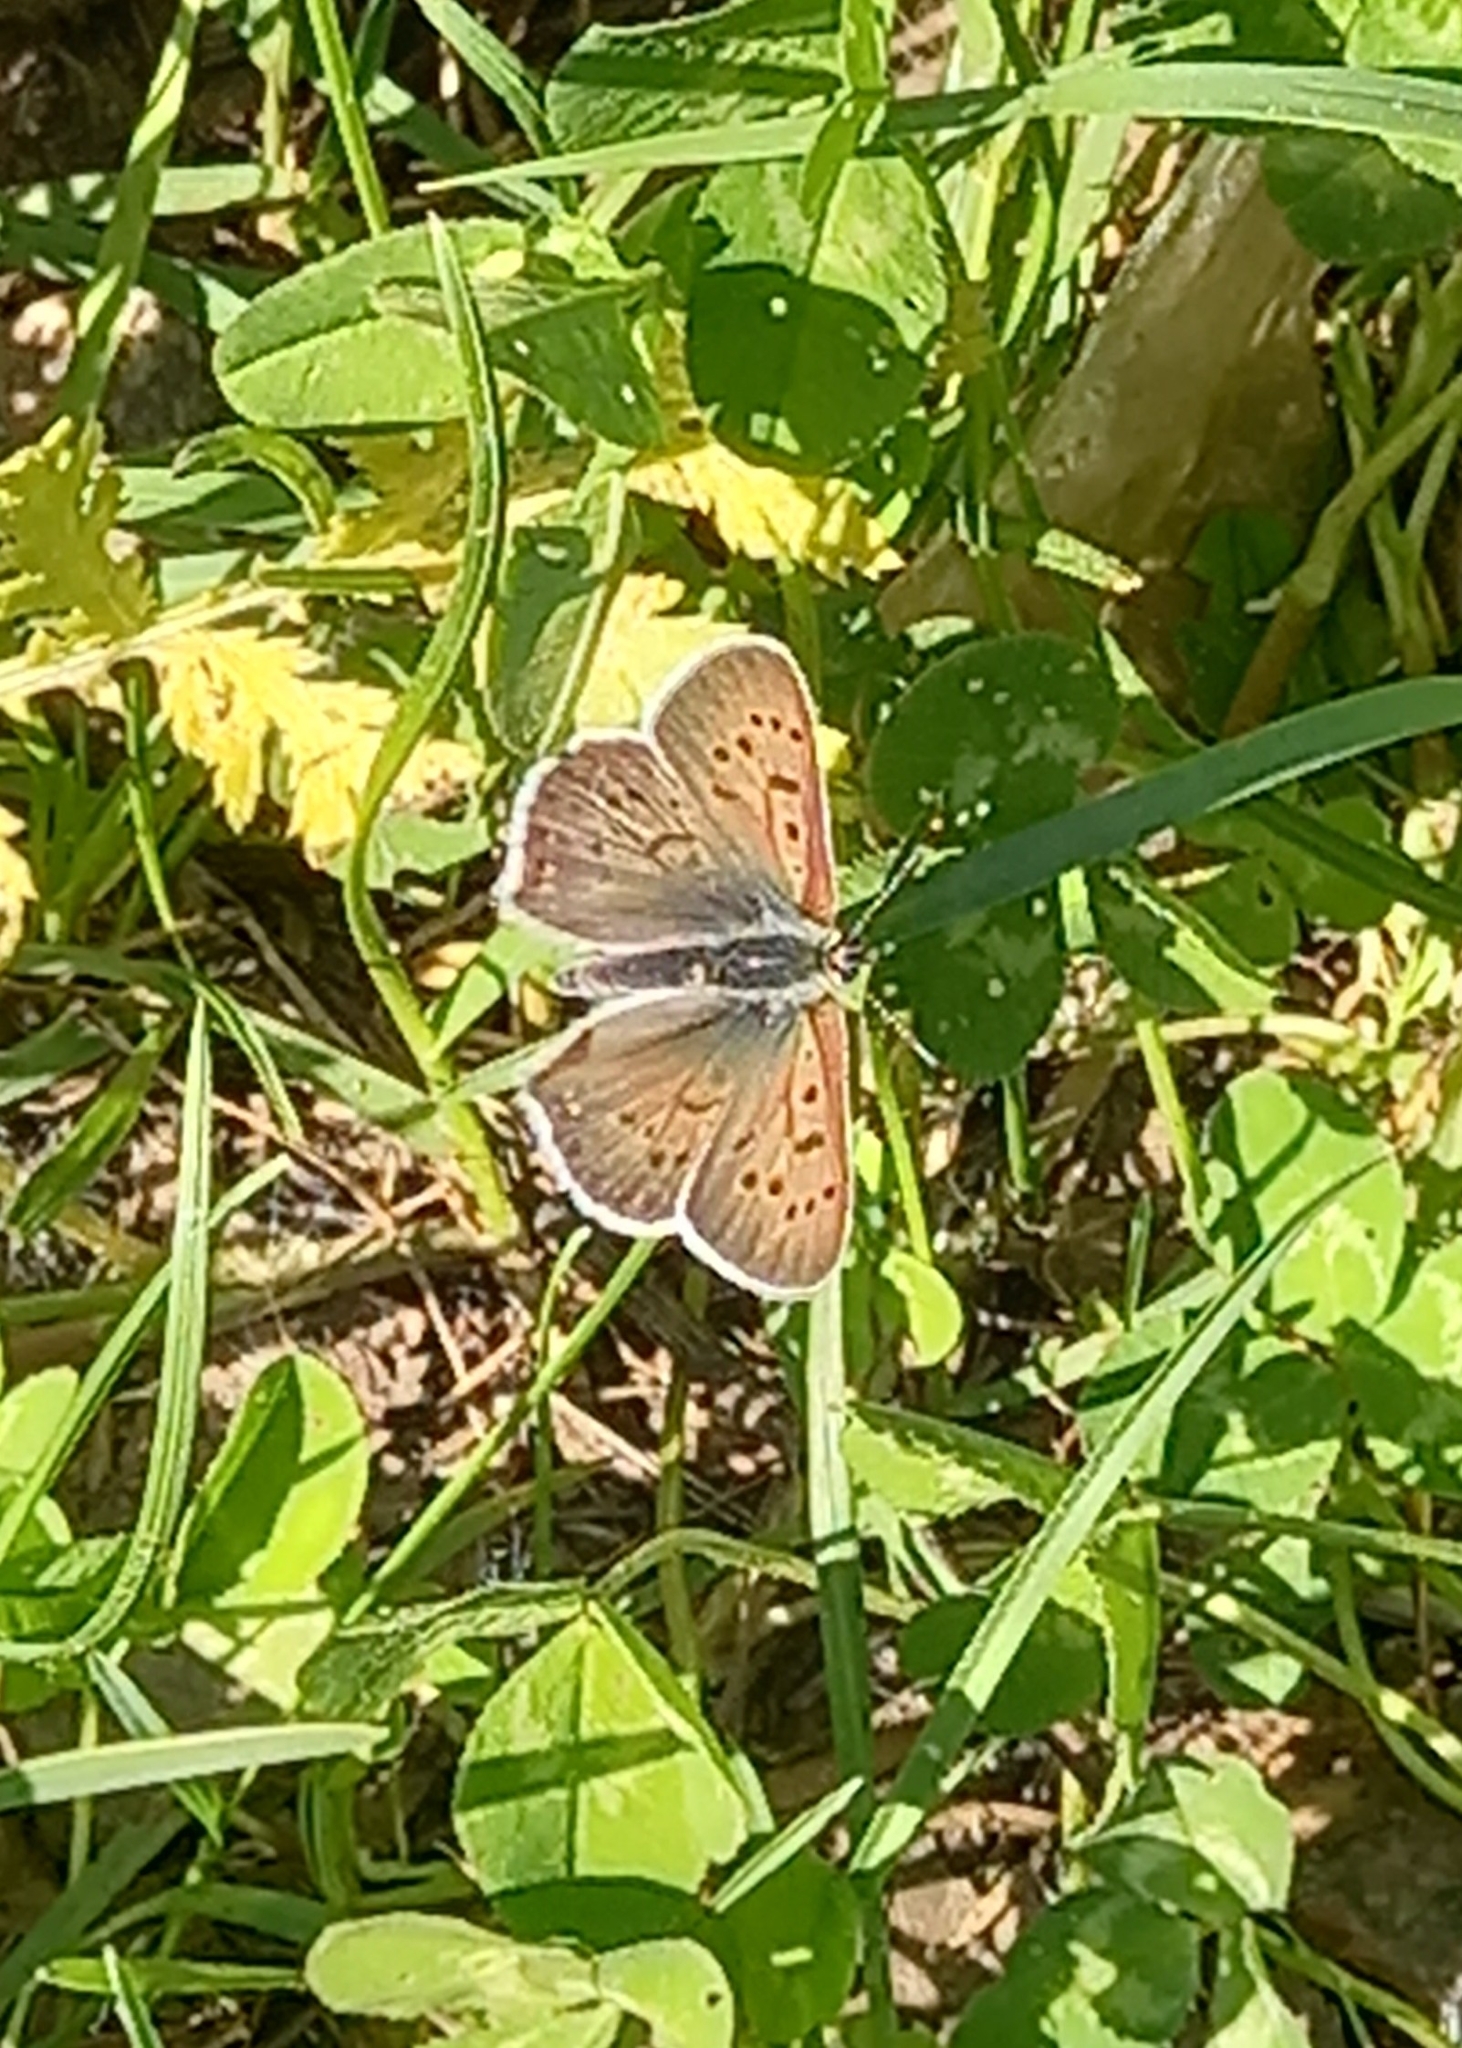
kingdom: Animalia
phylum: Arthropoda
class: Insecta
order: Lepidoptera
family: Lycaenidae
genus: Loweia
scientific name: Loweia tityrus
